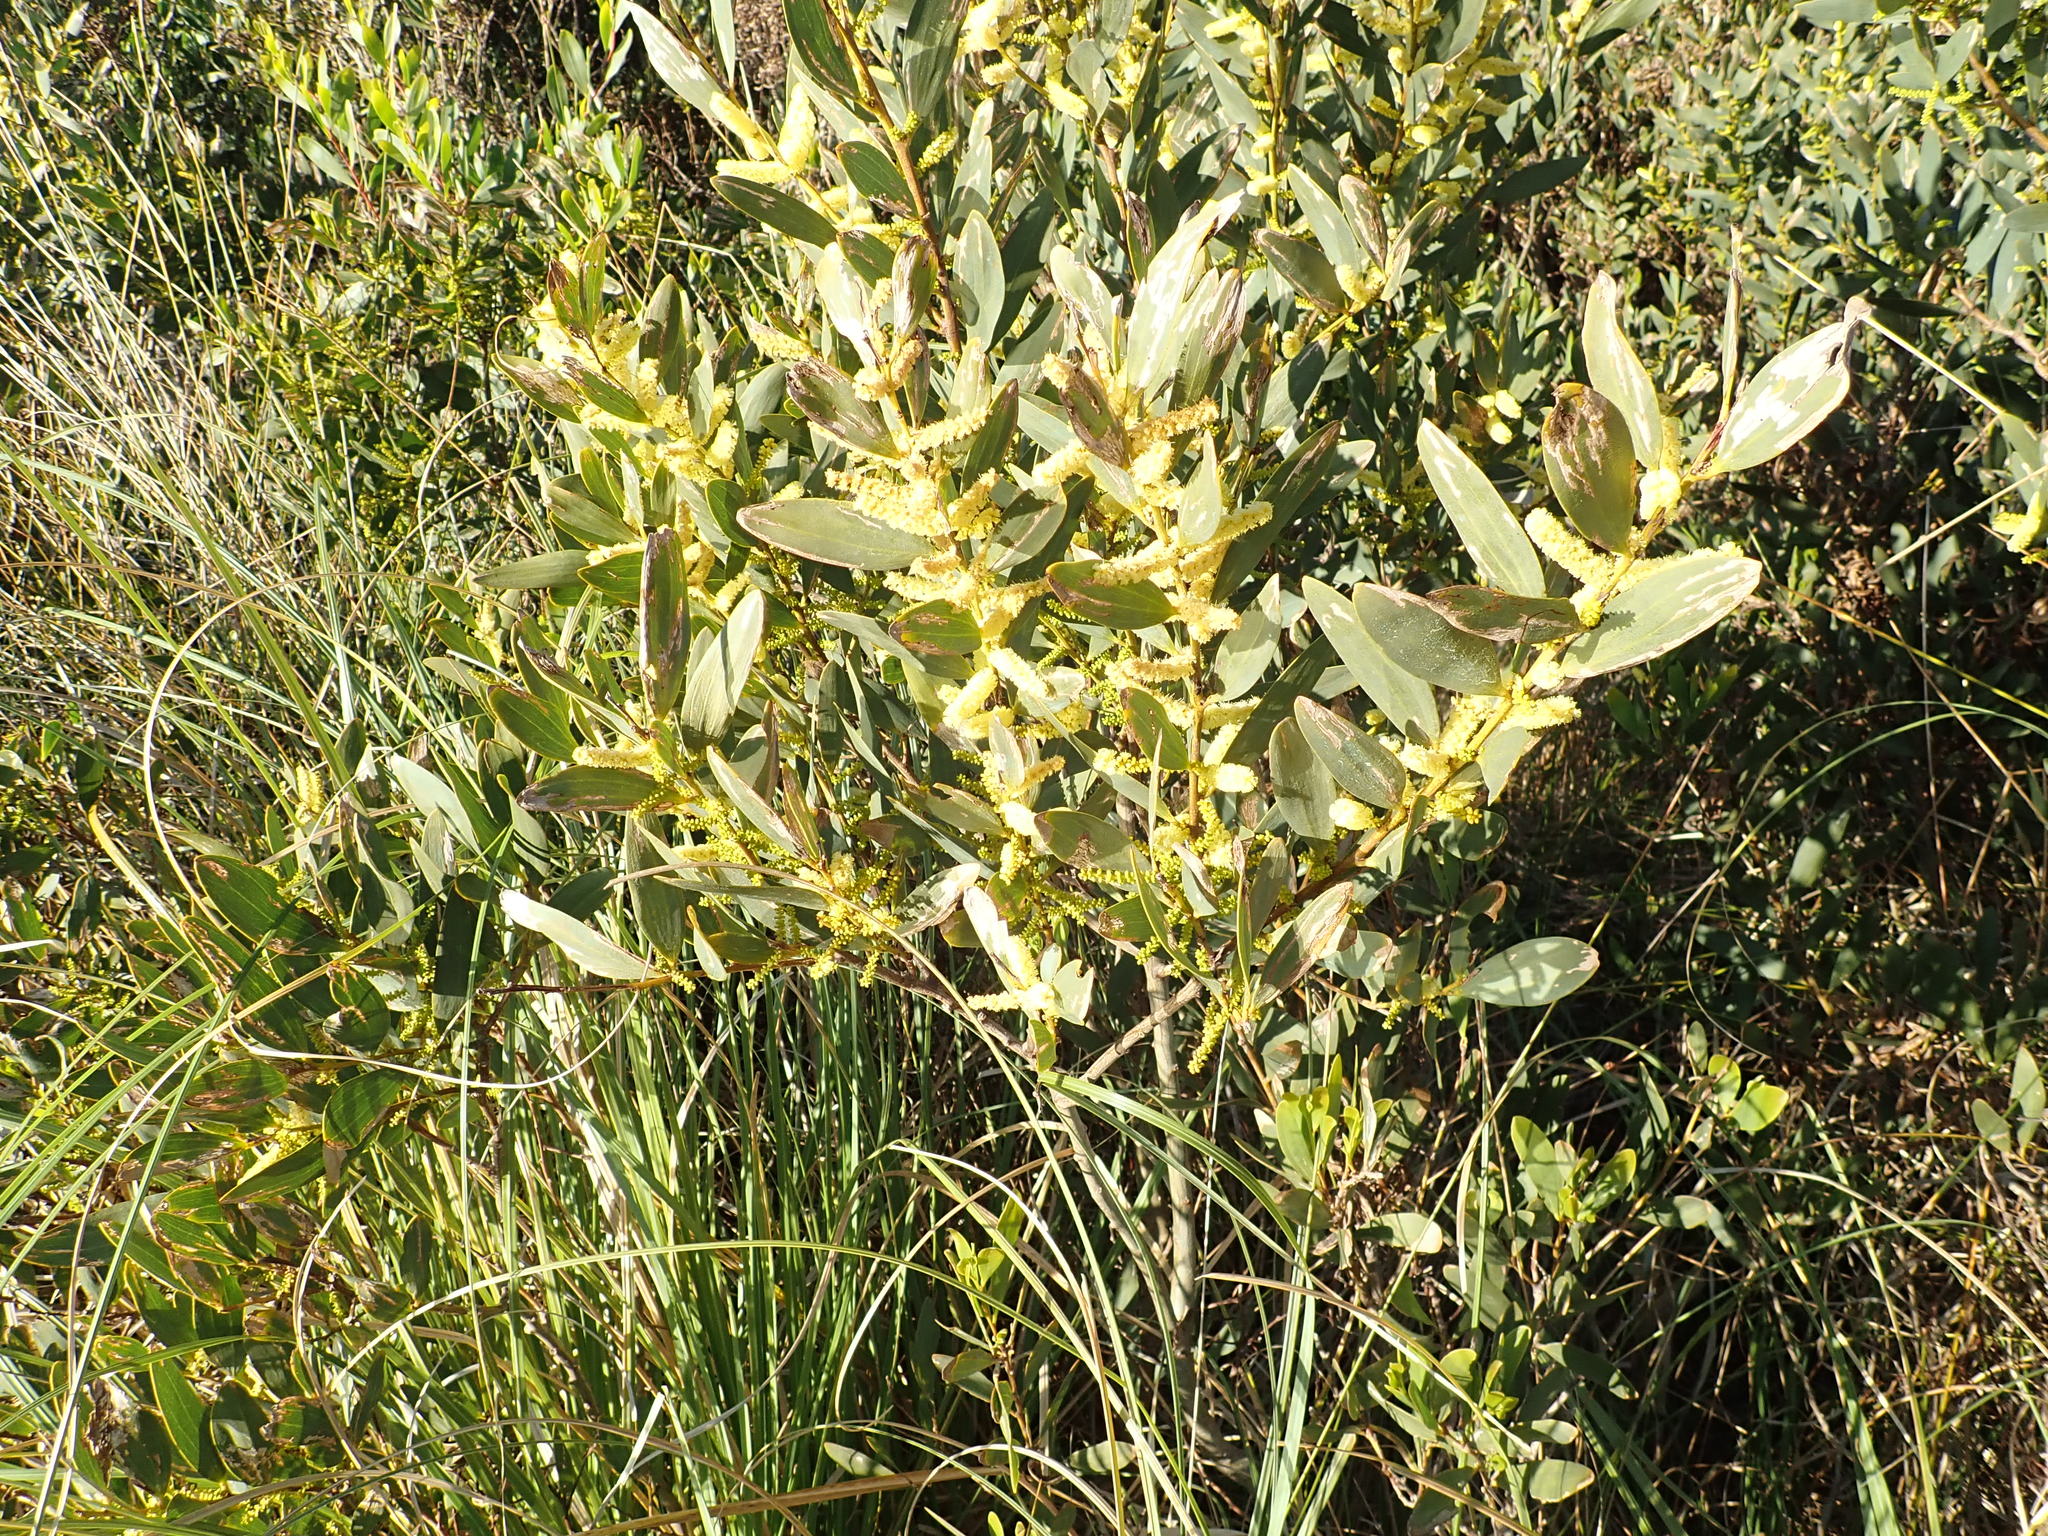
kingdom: Plantae
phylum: Tracheophyta
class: Magnoliopsida
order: Fabales
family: Fabaceae
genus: Acacia
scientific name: Acacia longifolia
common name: Sydney golden wattle
